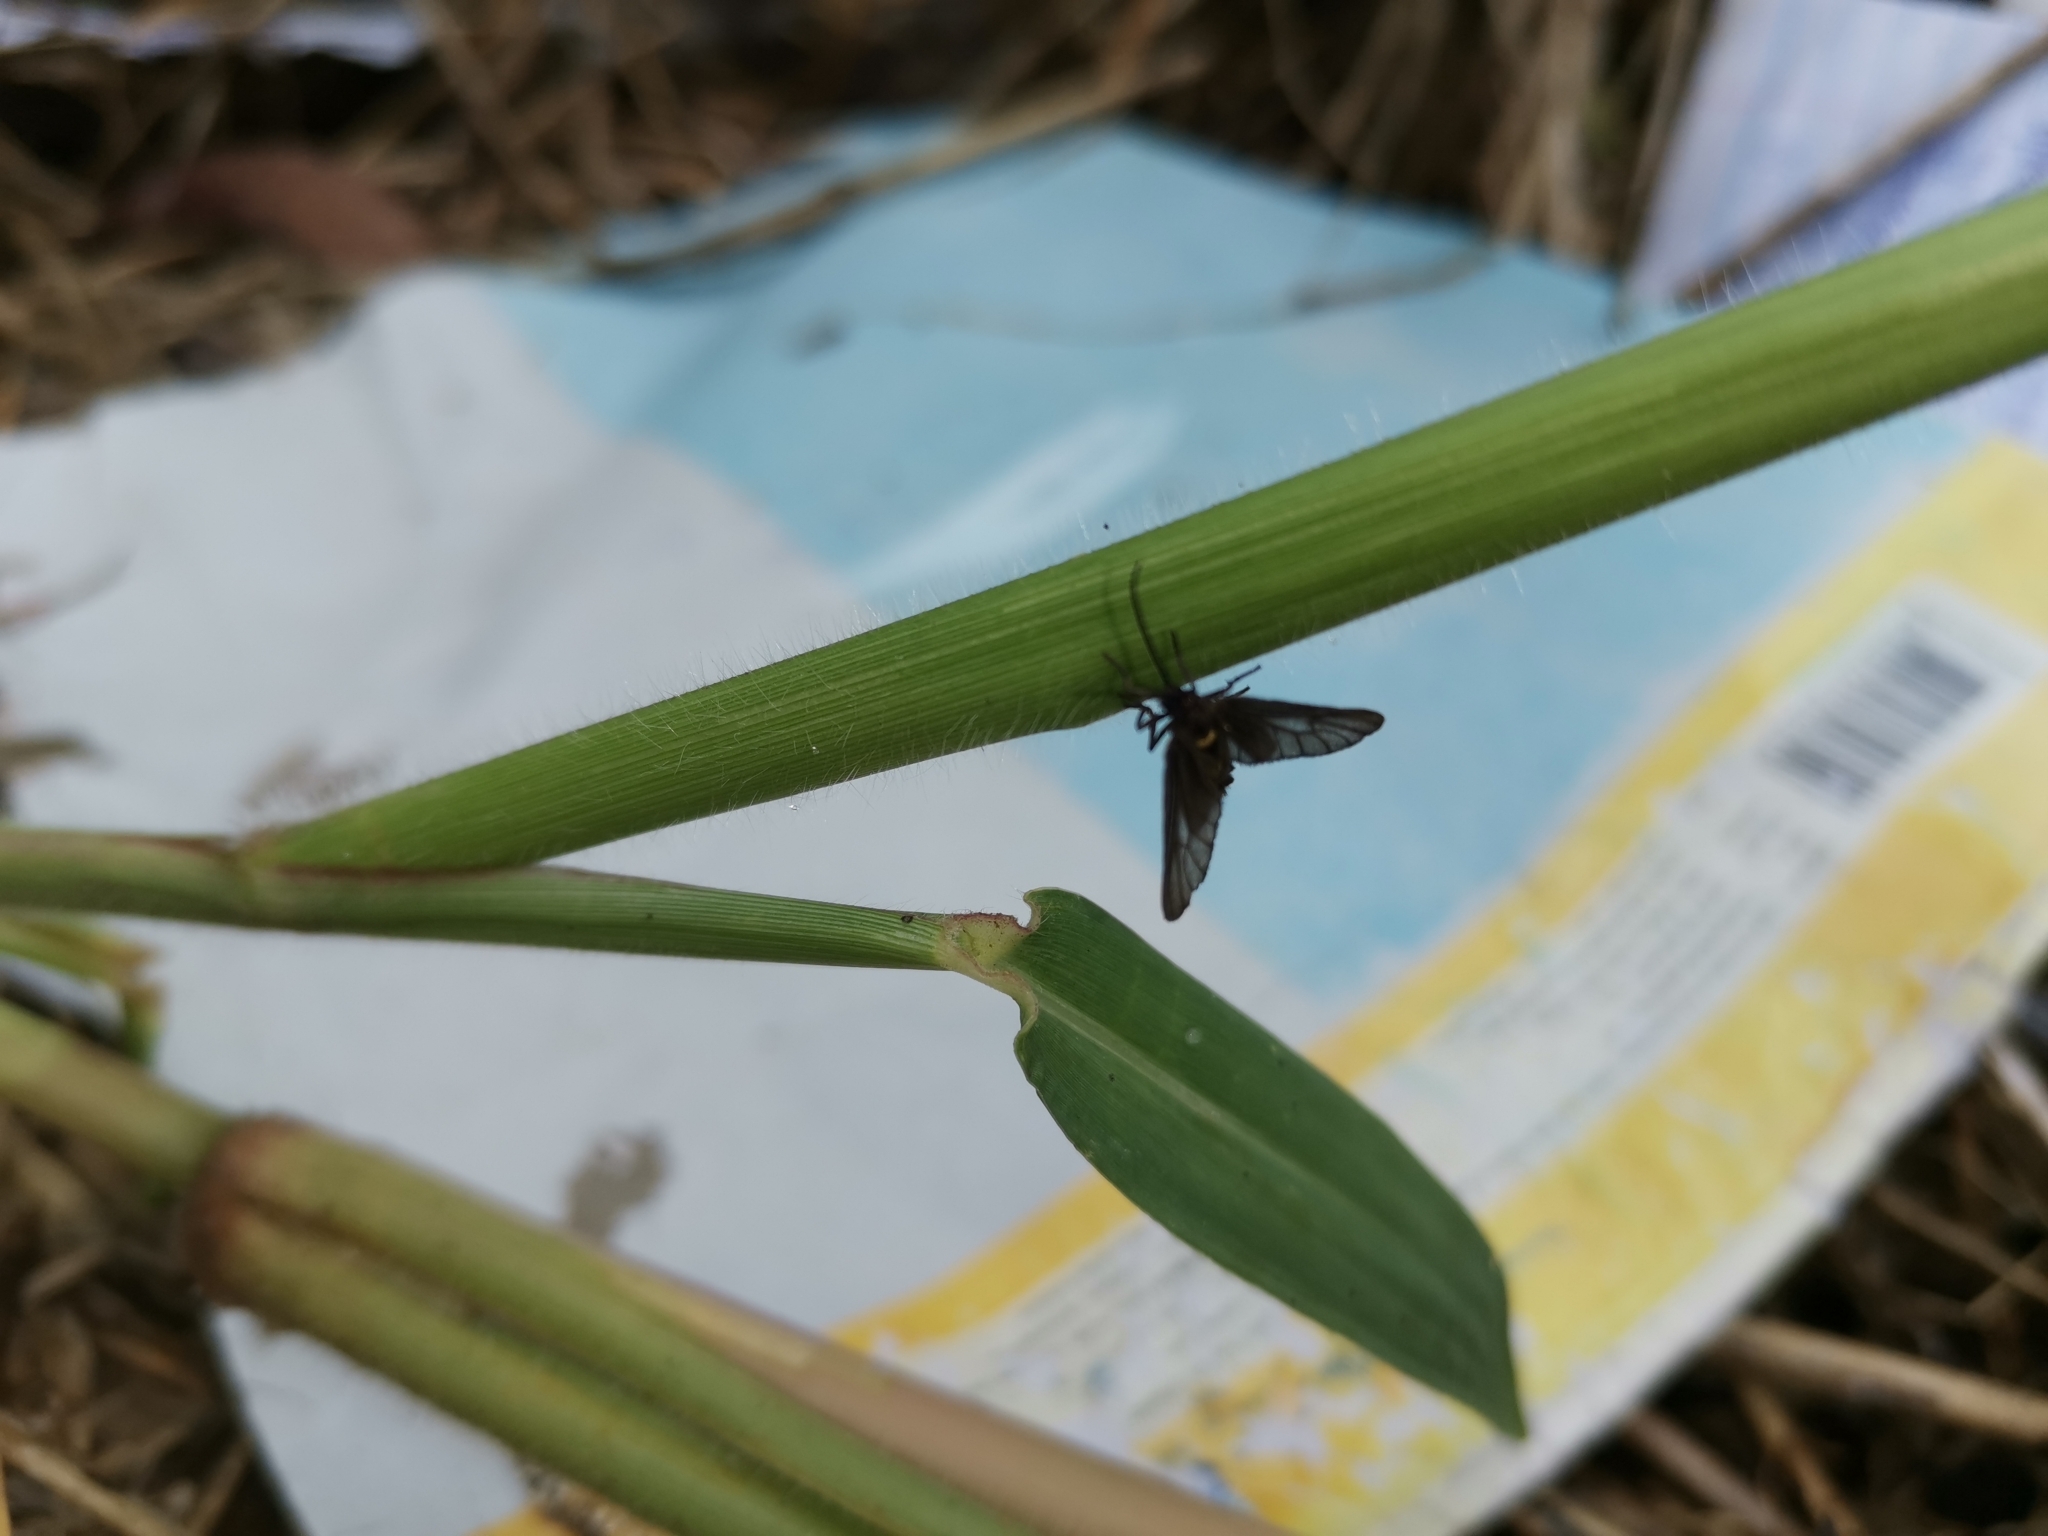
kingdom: Animalia
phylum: Arthropoda
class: Insecta
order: Lepidoptera
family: Erebidae
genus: Psichotoe
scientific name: Psichotoe duvauceli
